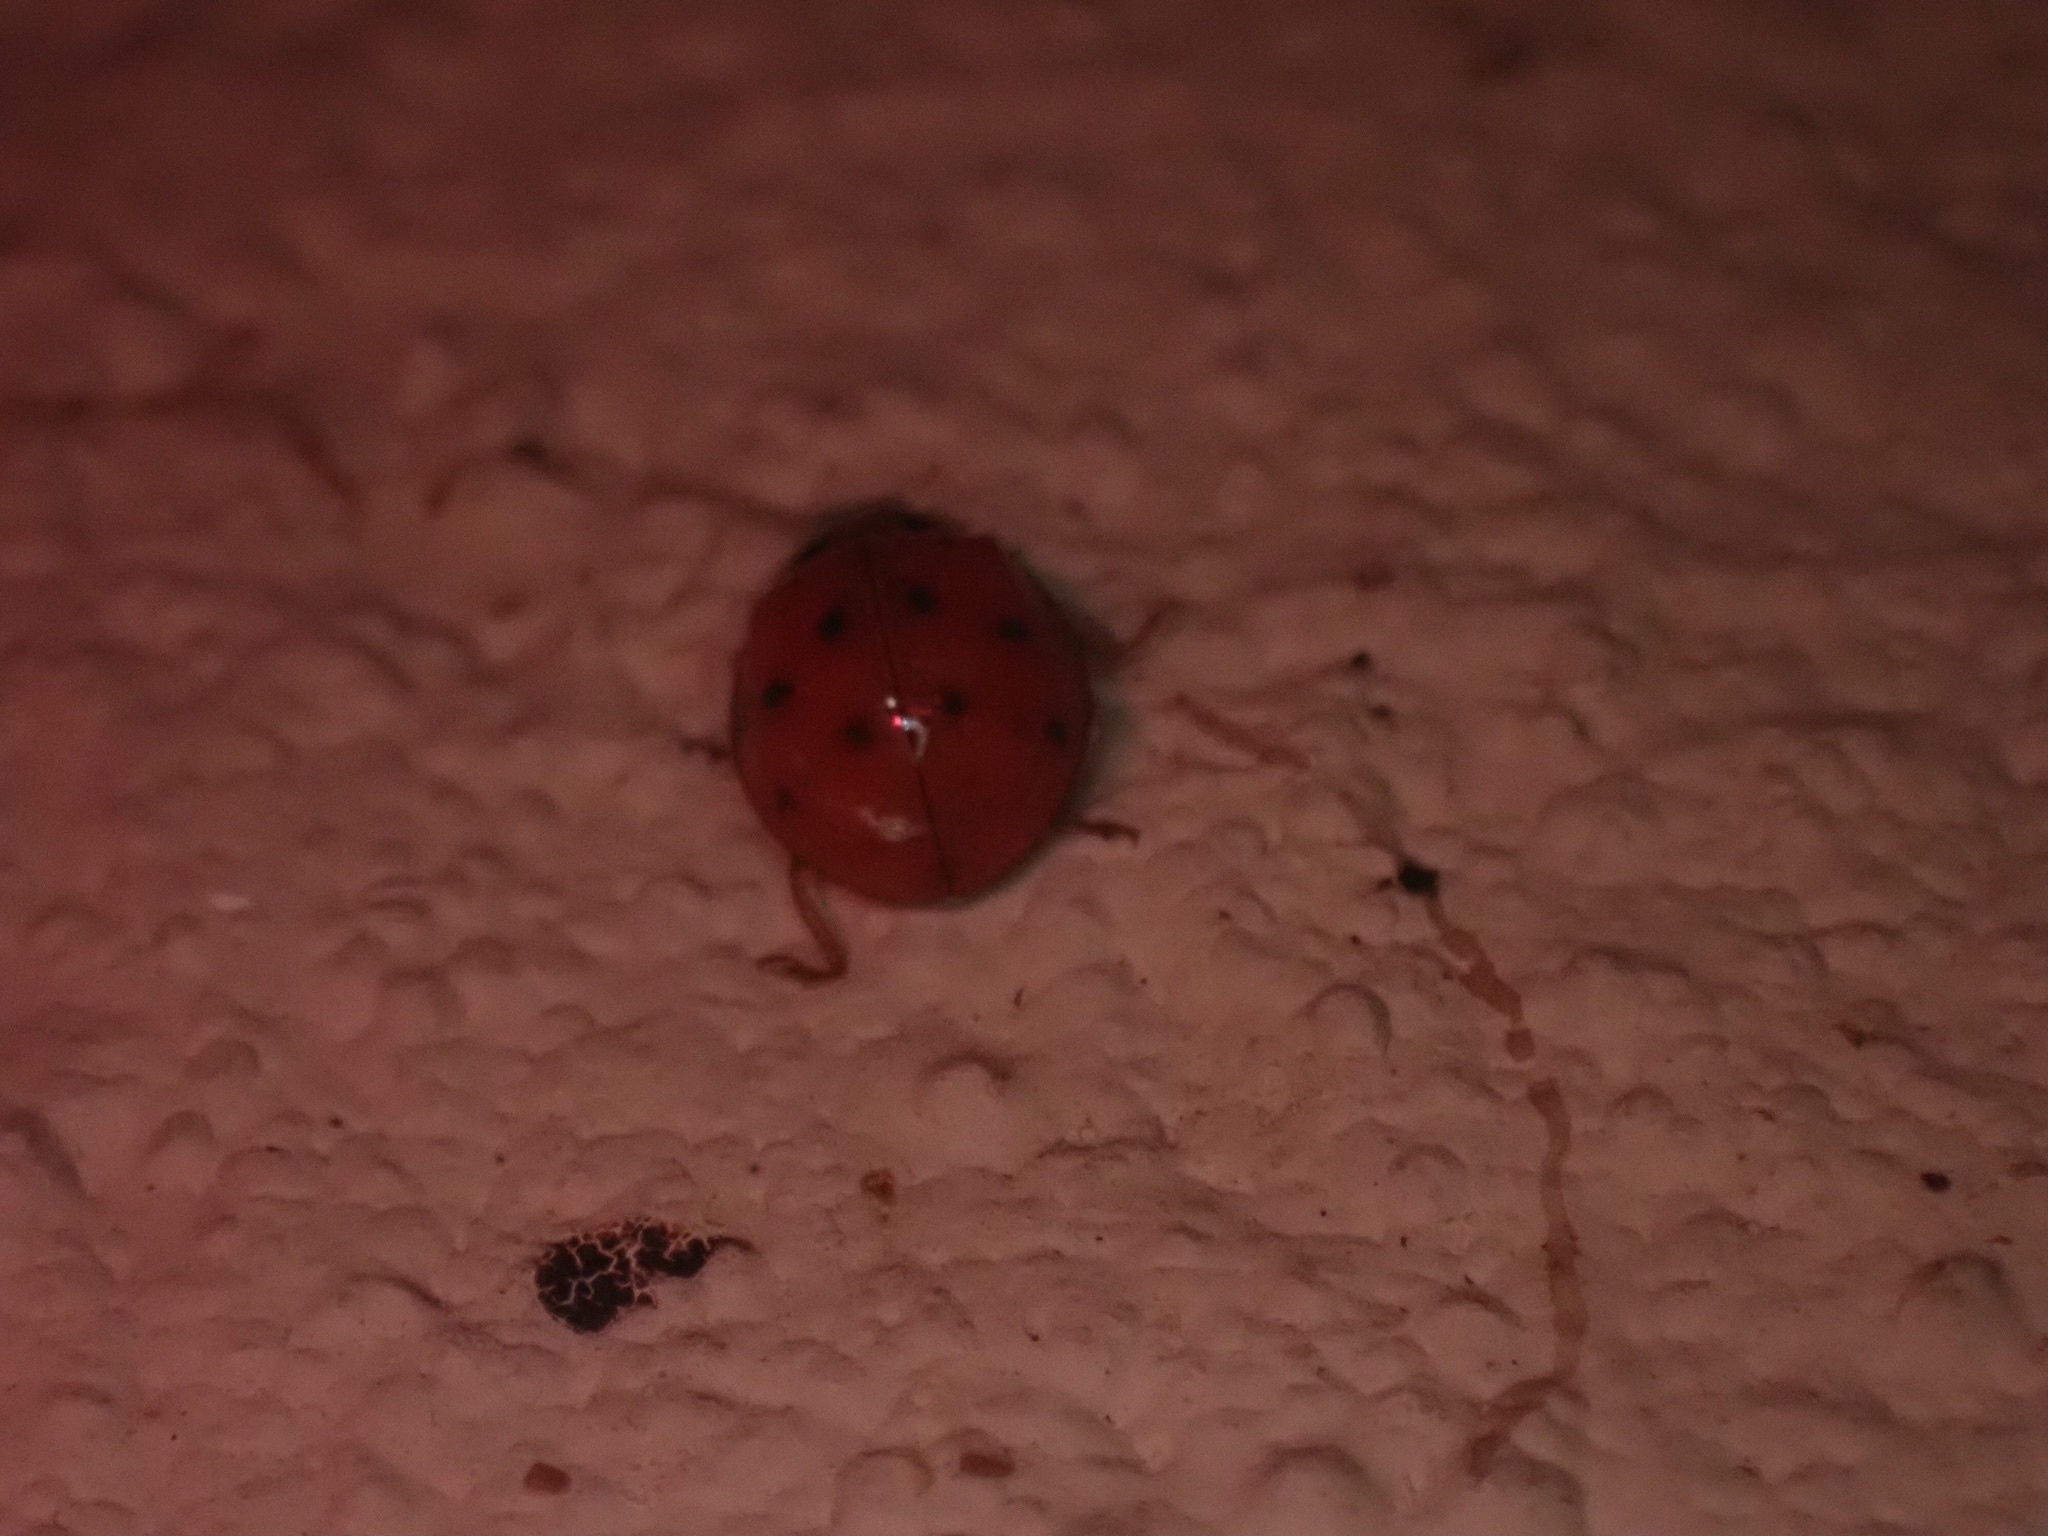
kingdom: Animalia
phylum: Arthropoda
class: Insecta
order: Coleoptera
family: Coccinellidae
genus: Harmonia
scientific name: Harmonia axyridis
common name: Harlequin ladybird
